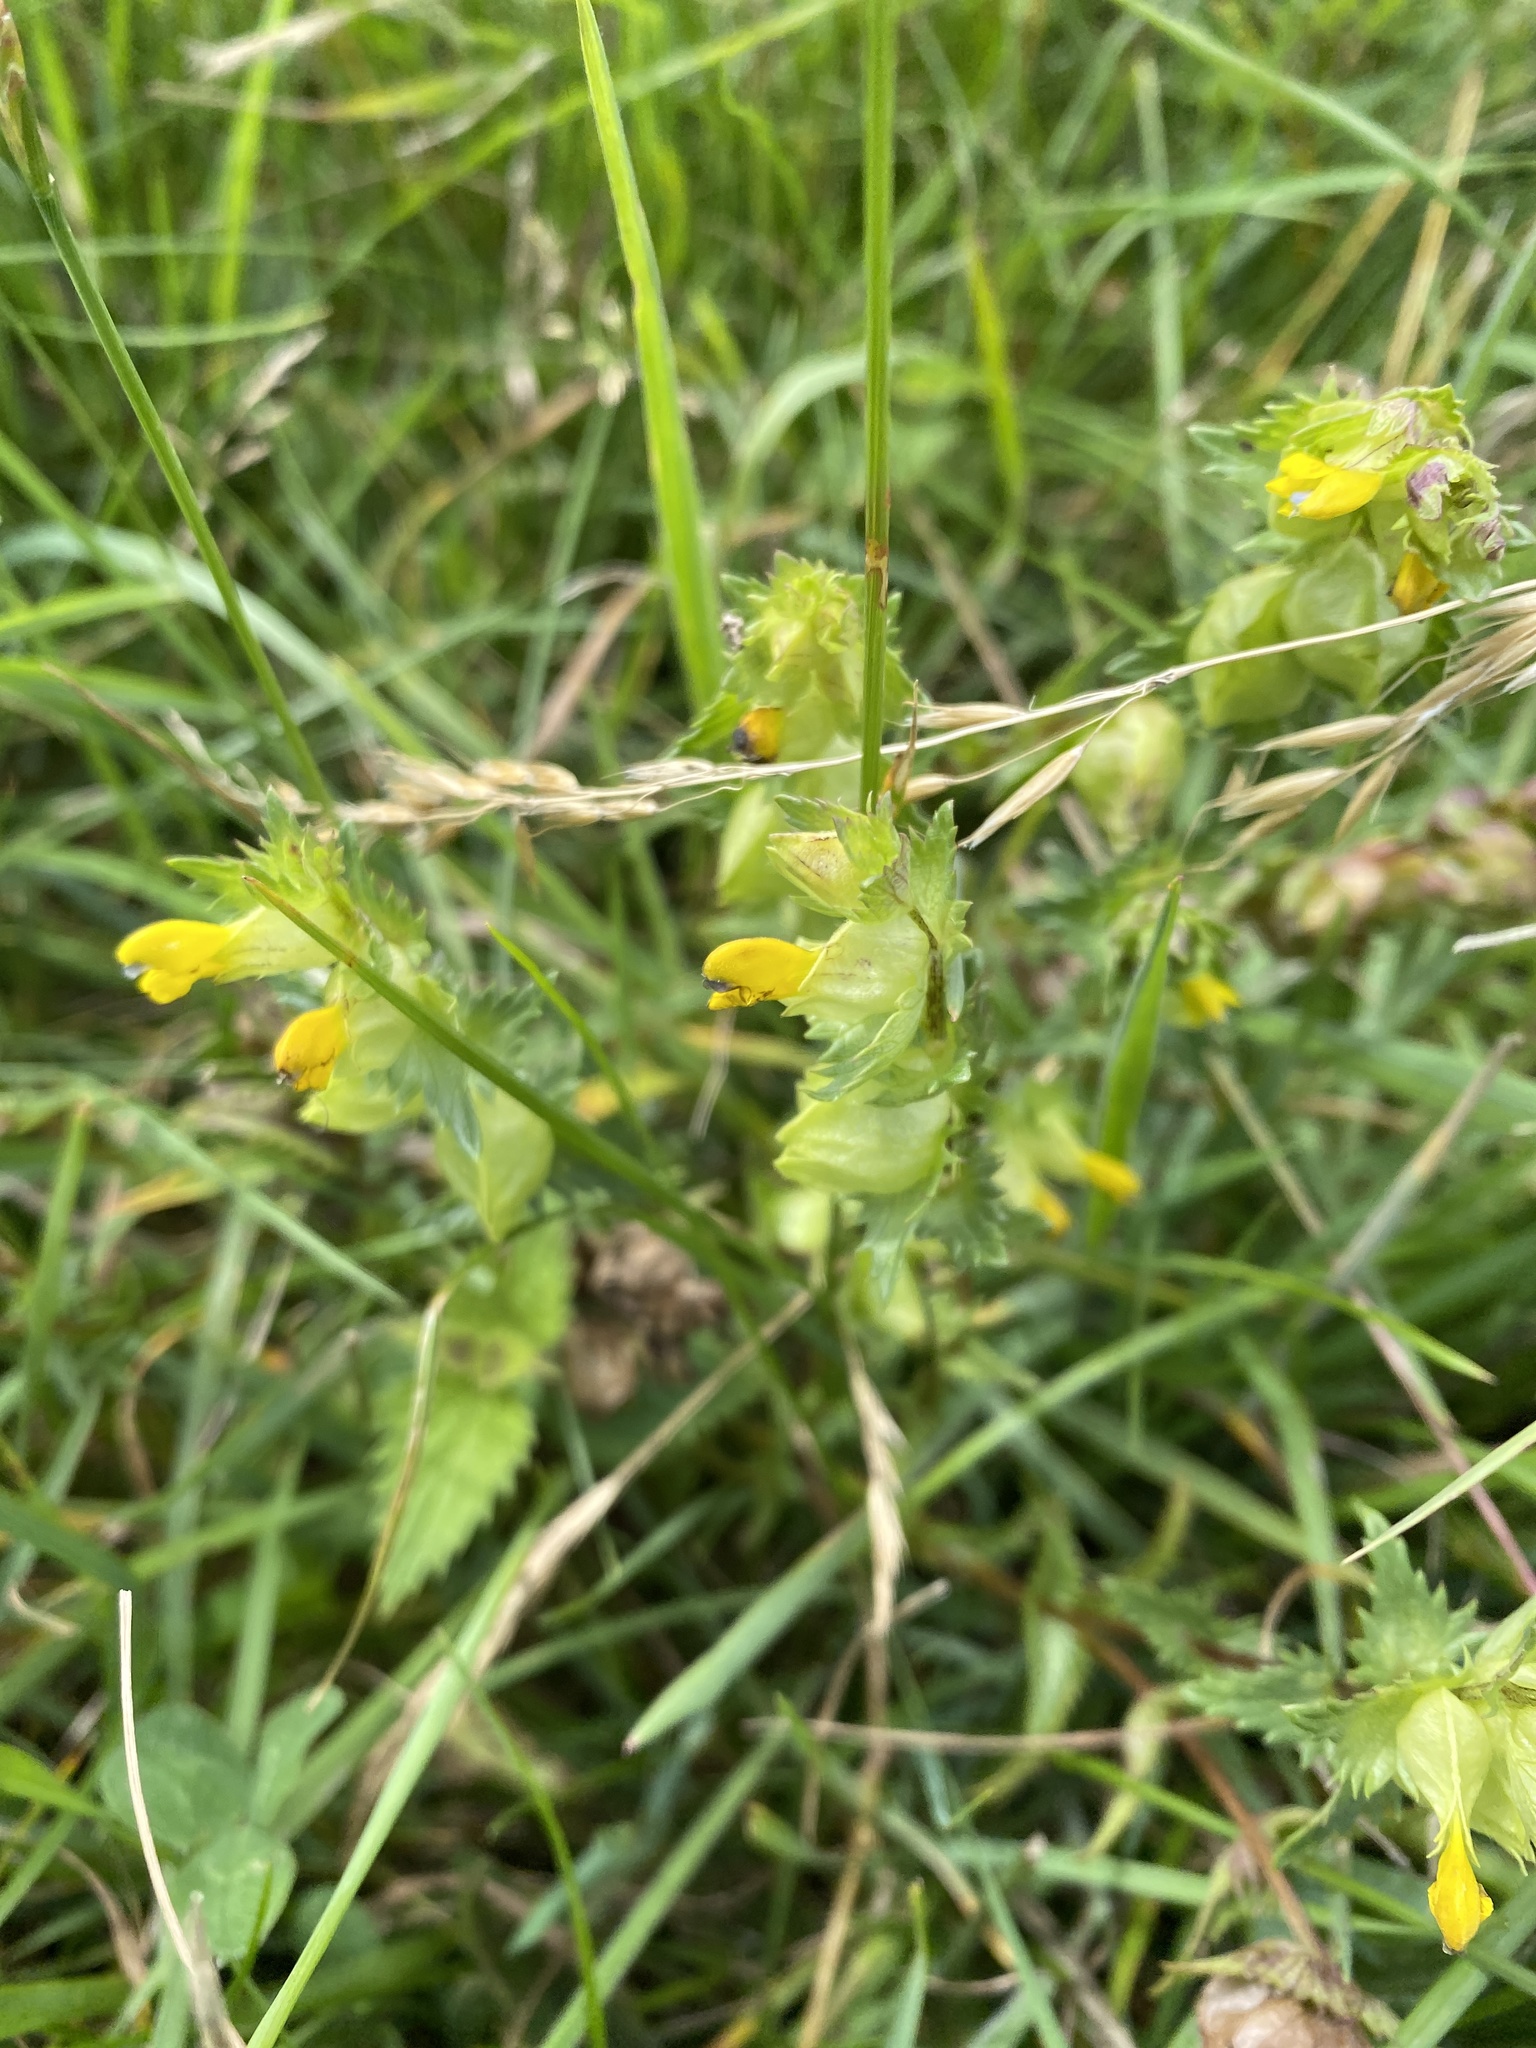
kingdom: Plantae
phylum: Tracheophyta
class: Magnoliopsida
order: Lamiales
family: Orobanchaceae
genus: Rhinanthus
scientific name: Rhinanthus minor
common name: Yellow-rattle
